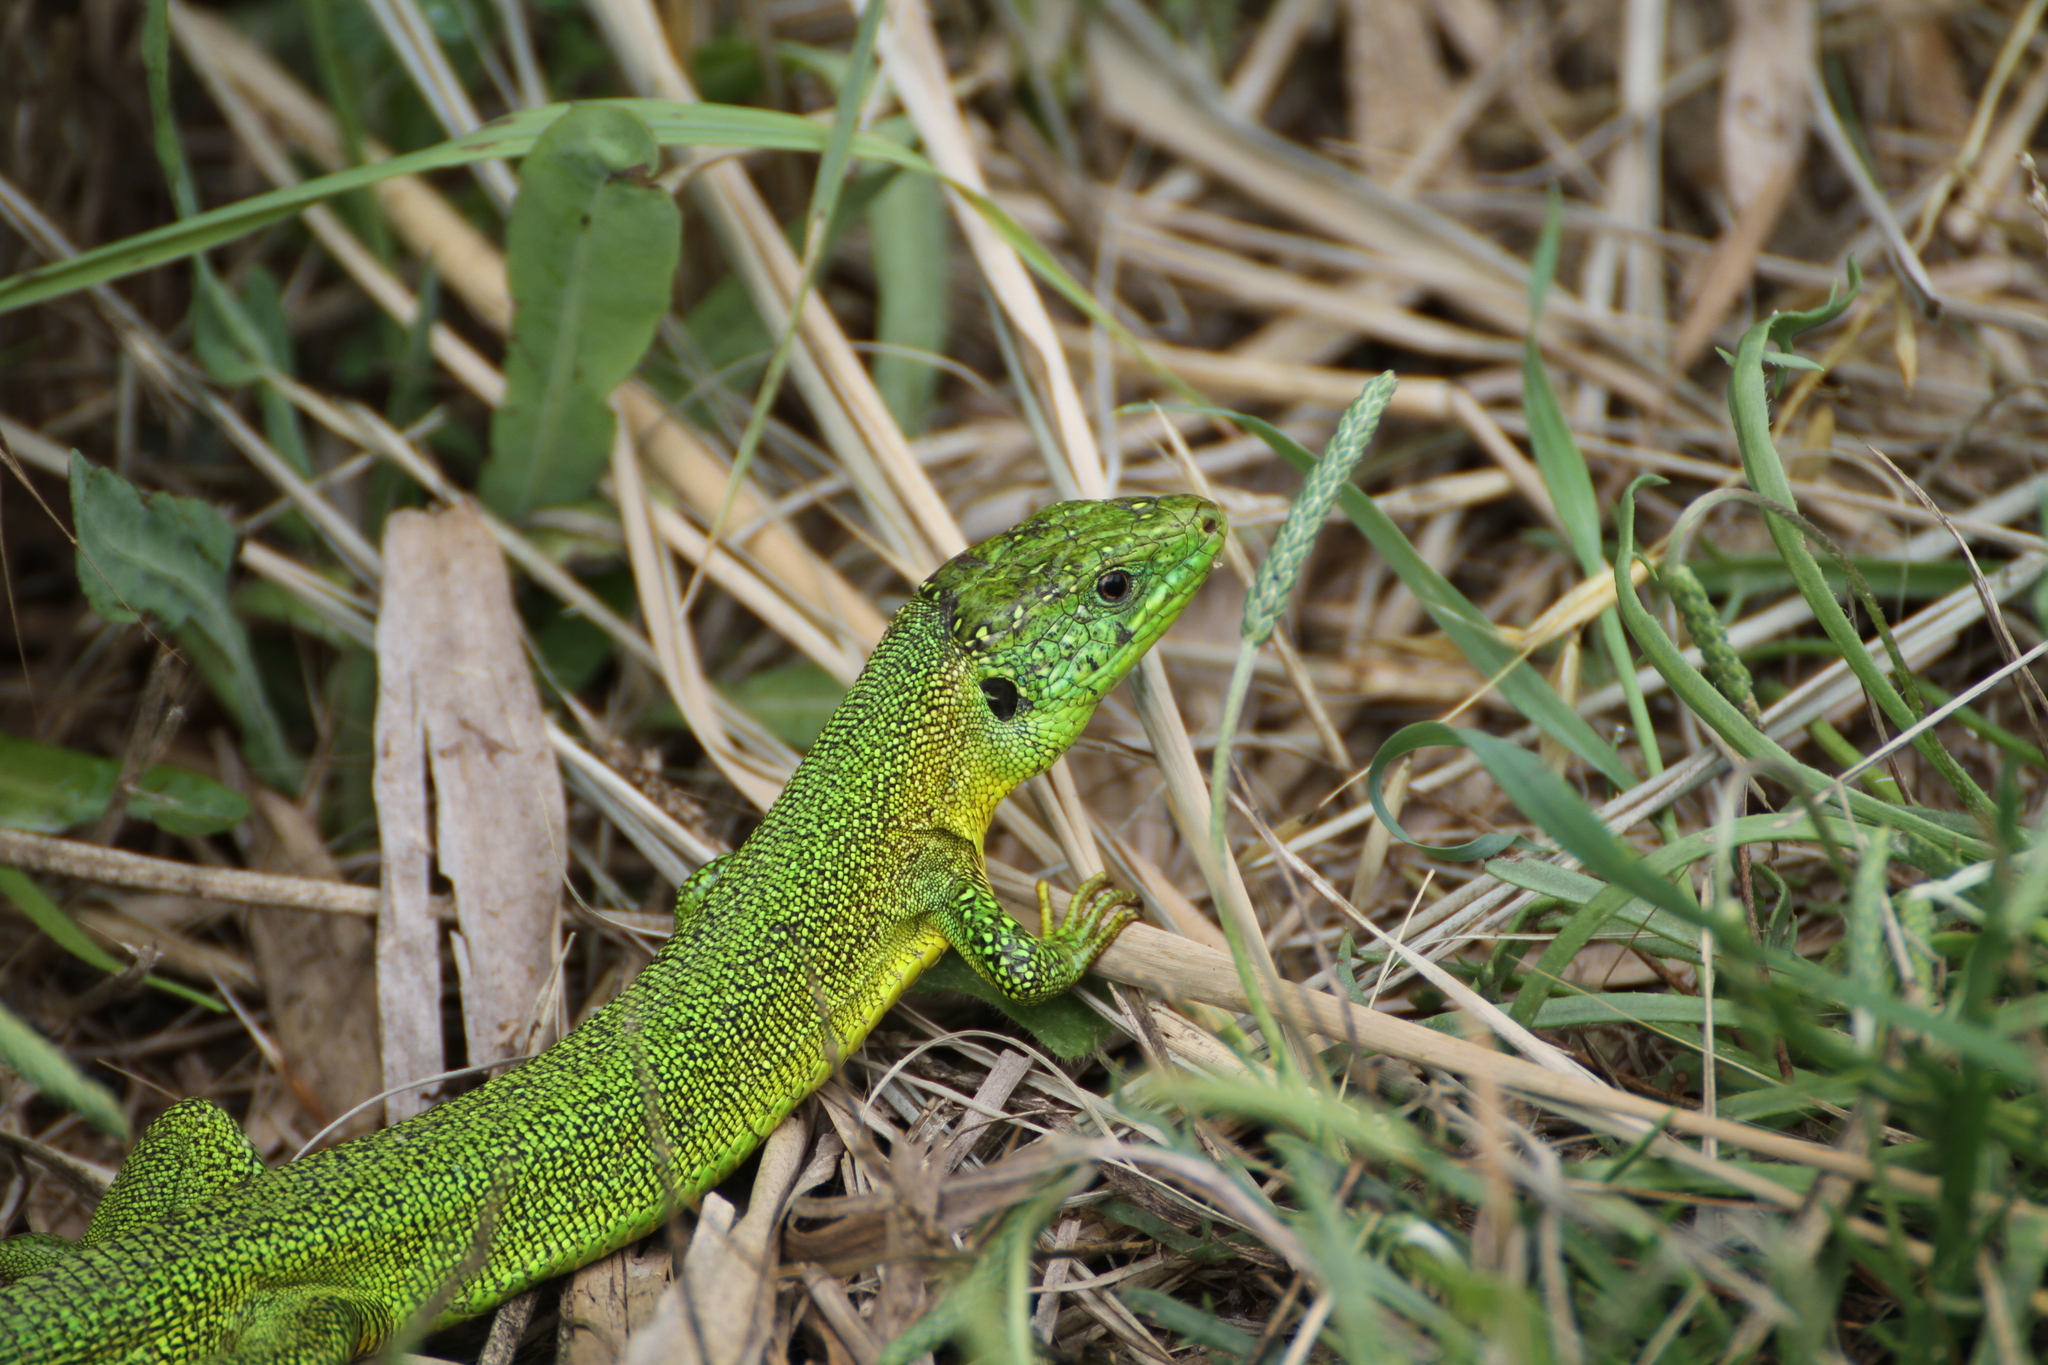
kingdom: Animalia
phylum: Chordata
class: Squamata
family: Lacertidae
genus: Lacerta
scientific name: Lacerta bilineata
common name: Western green lizard
